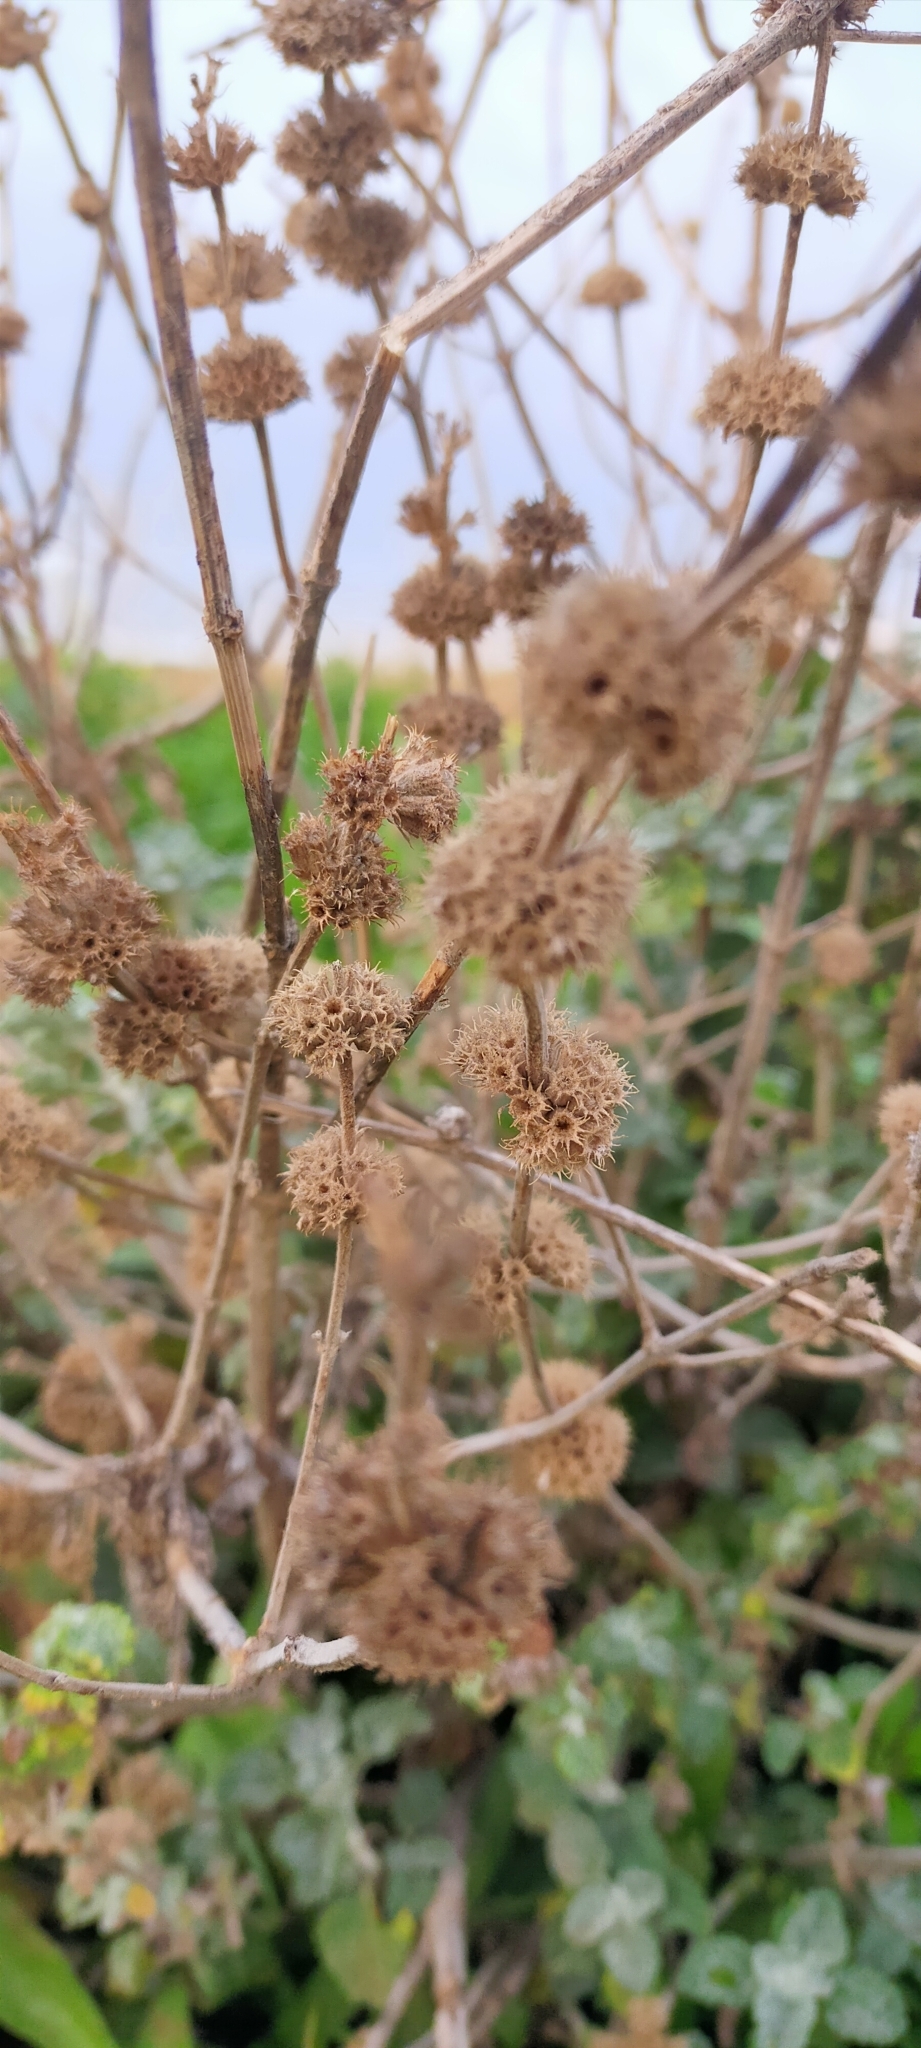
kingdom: Plantae
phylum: Tracheophyta
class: Magnoliopsida
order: Lamiales
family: Lamiaceae
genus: Marrubium
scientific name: Marrubium vulgare
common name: Horehound
